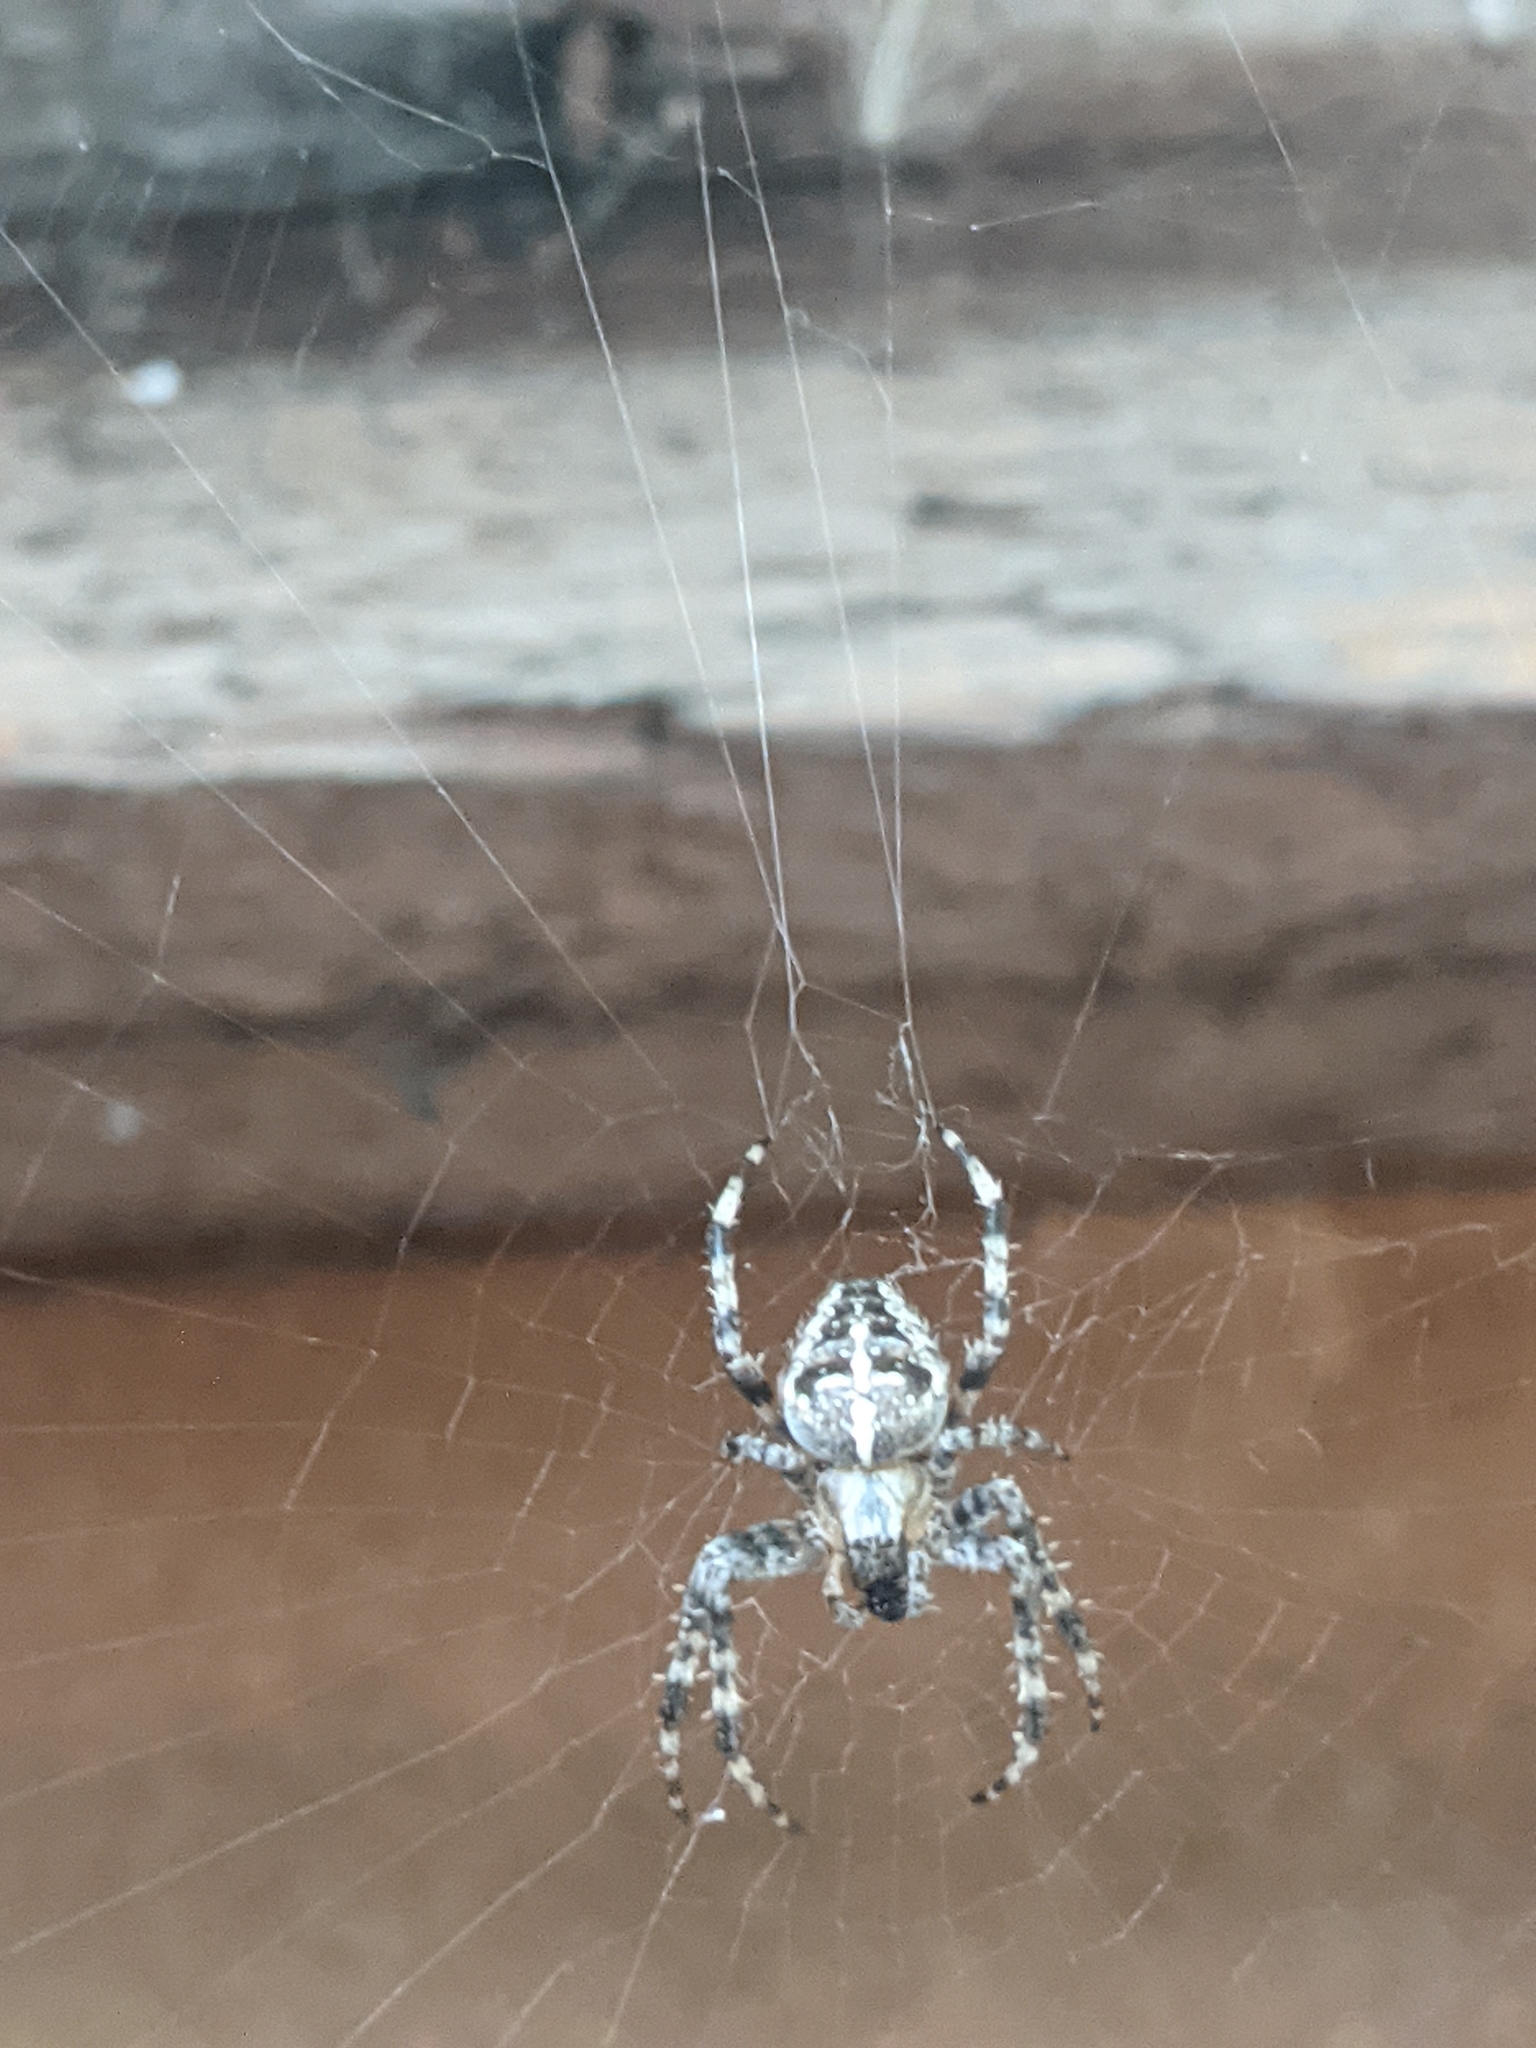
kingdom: Animalia
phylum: Arthropoda
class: Arachnida
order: Araneae
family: Araneidae
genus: Araneus
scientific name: Araneus diadematus
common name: Cross orbweaver
